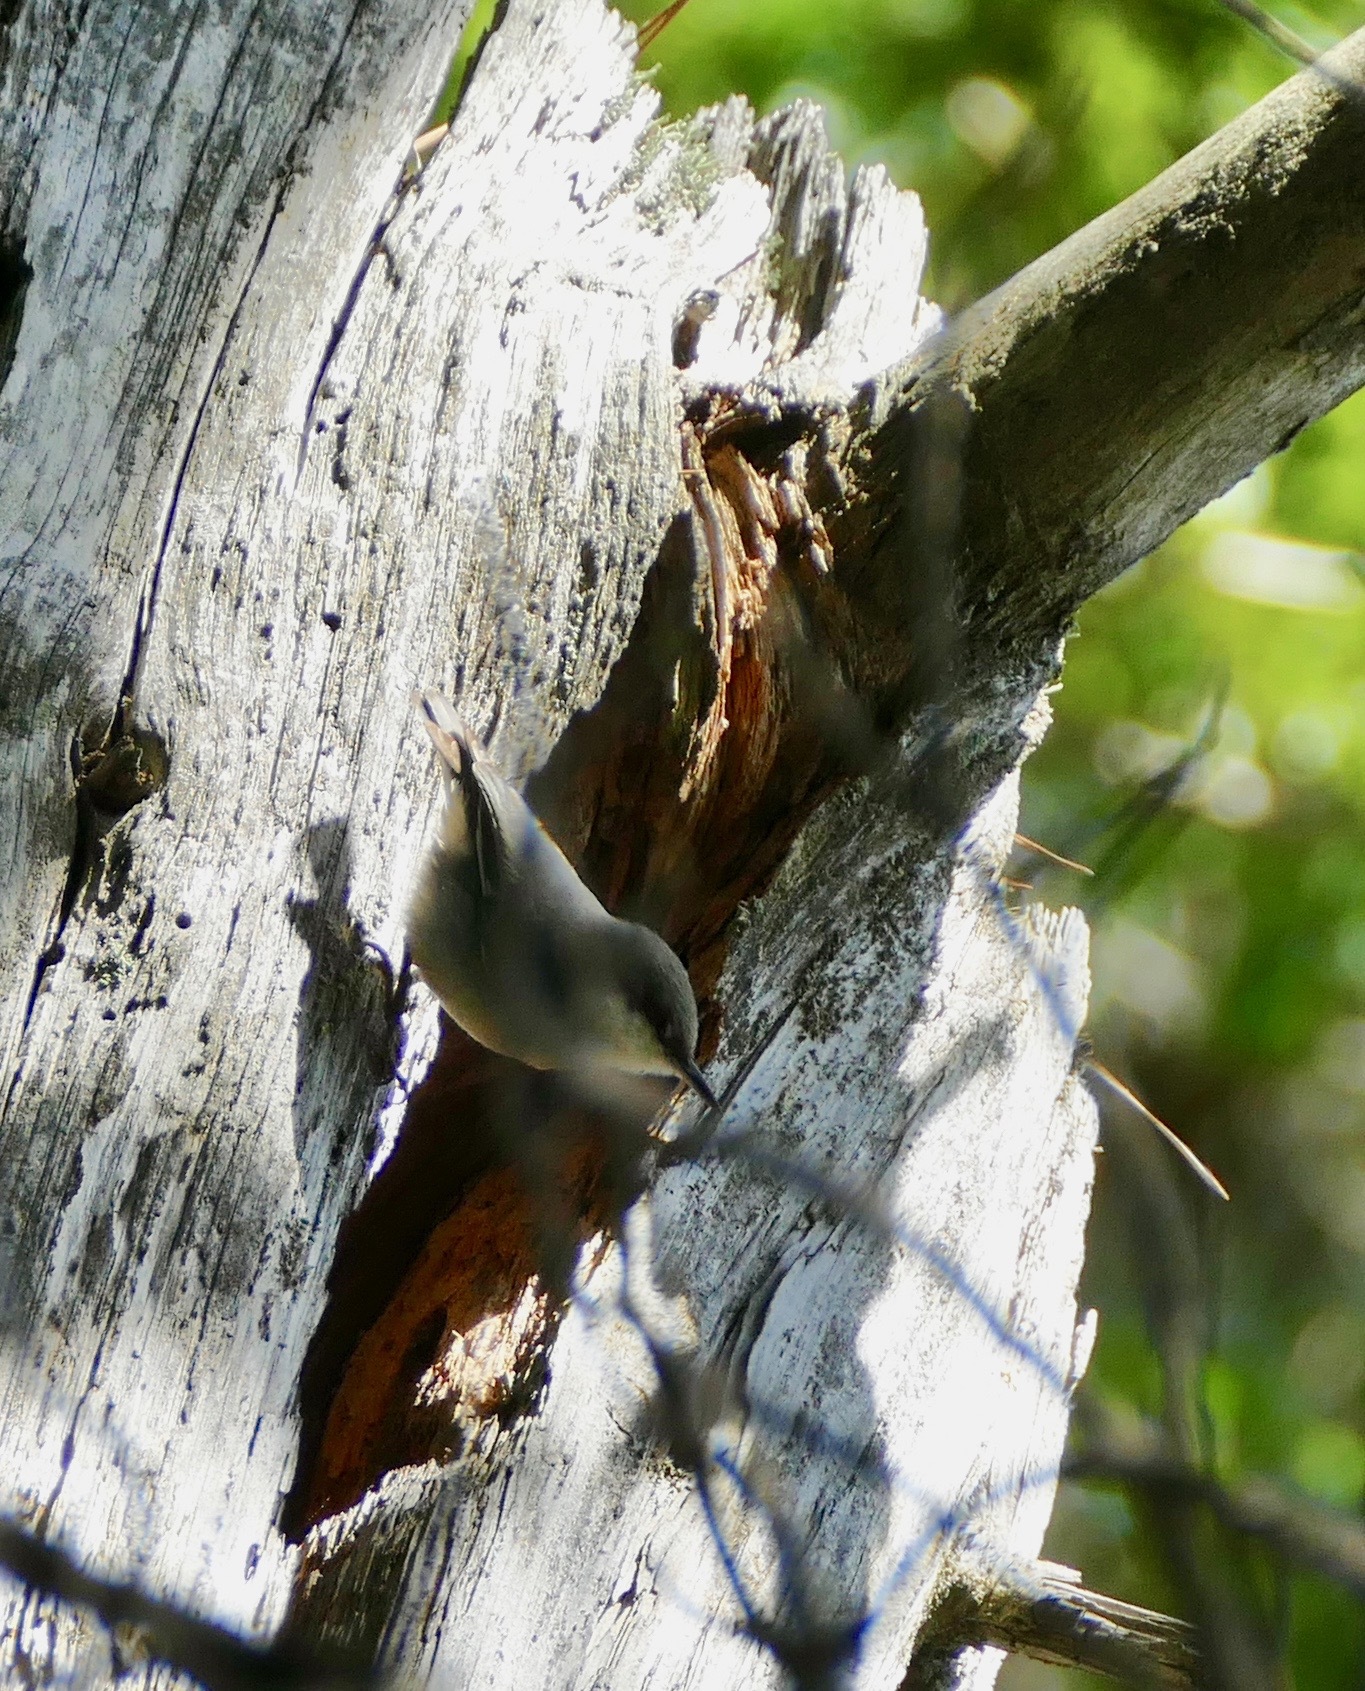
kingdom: Animalia
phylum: Chordata
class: Aves
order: Passeriformes
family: Sittidae
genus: Sitta
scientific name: Sitta pygmaea
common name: Pygmy nuthatch
